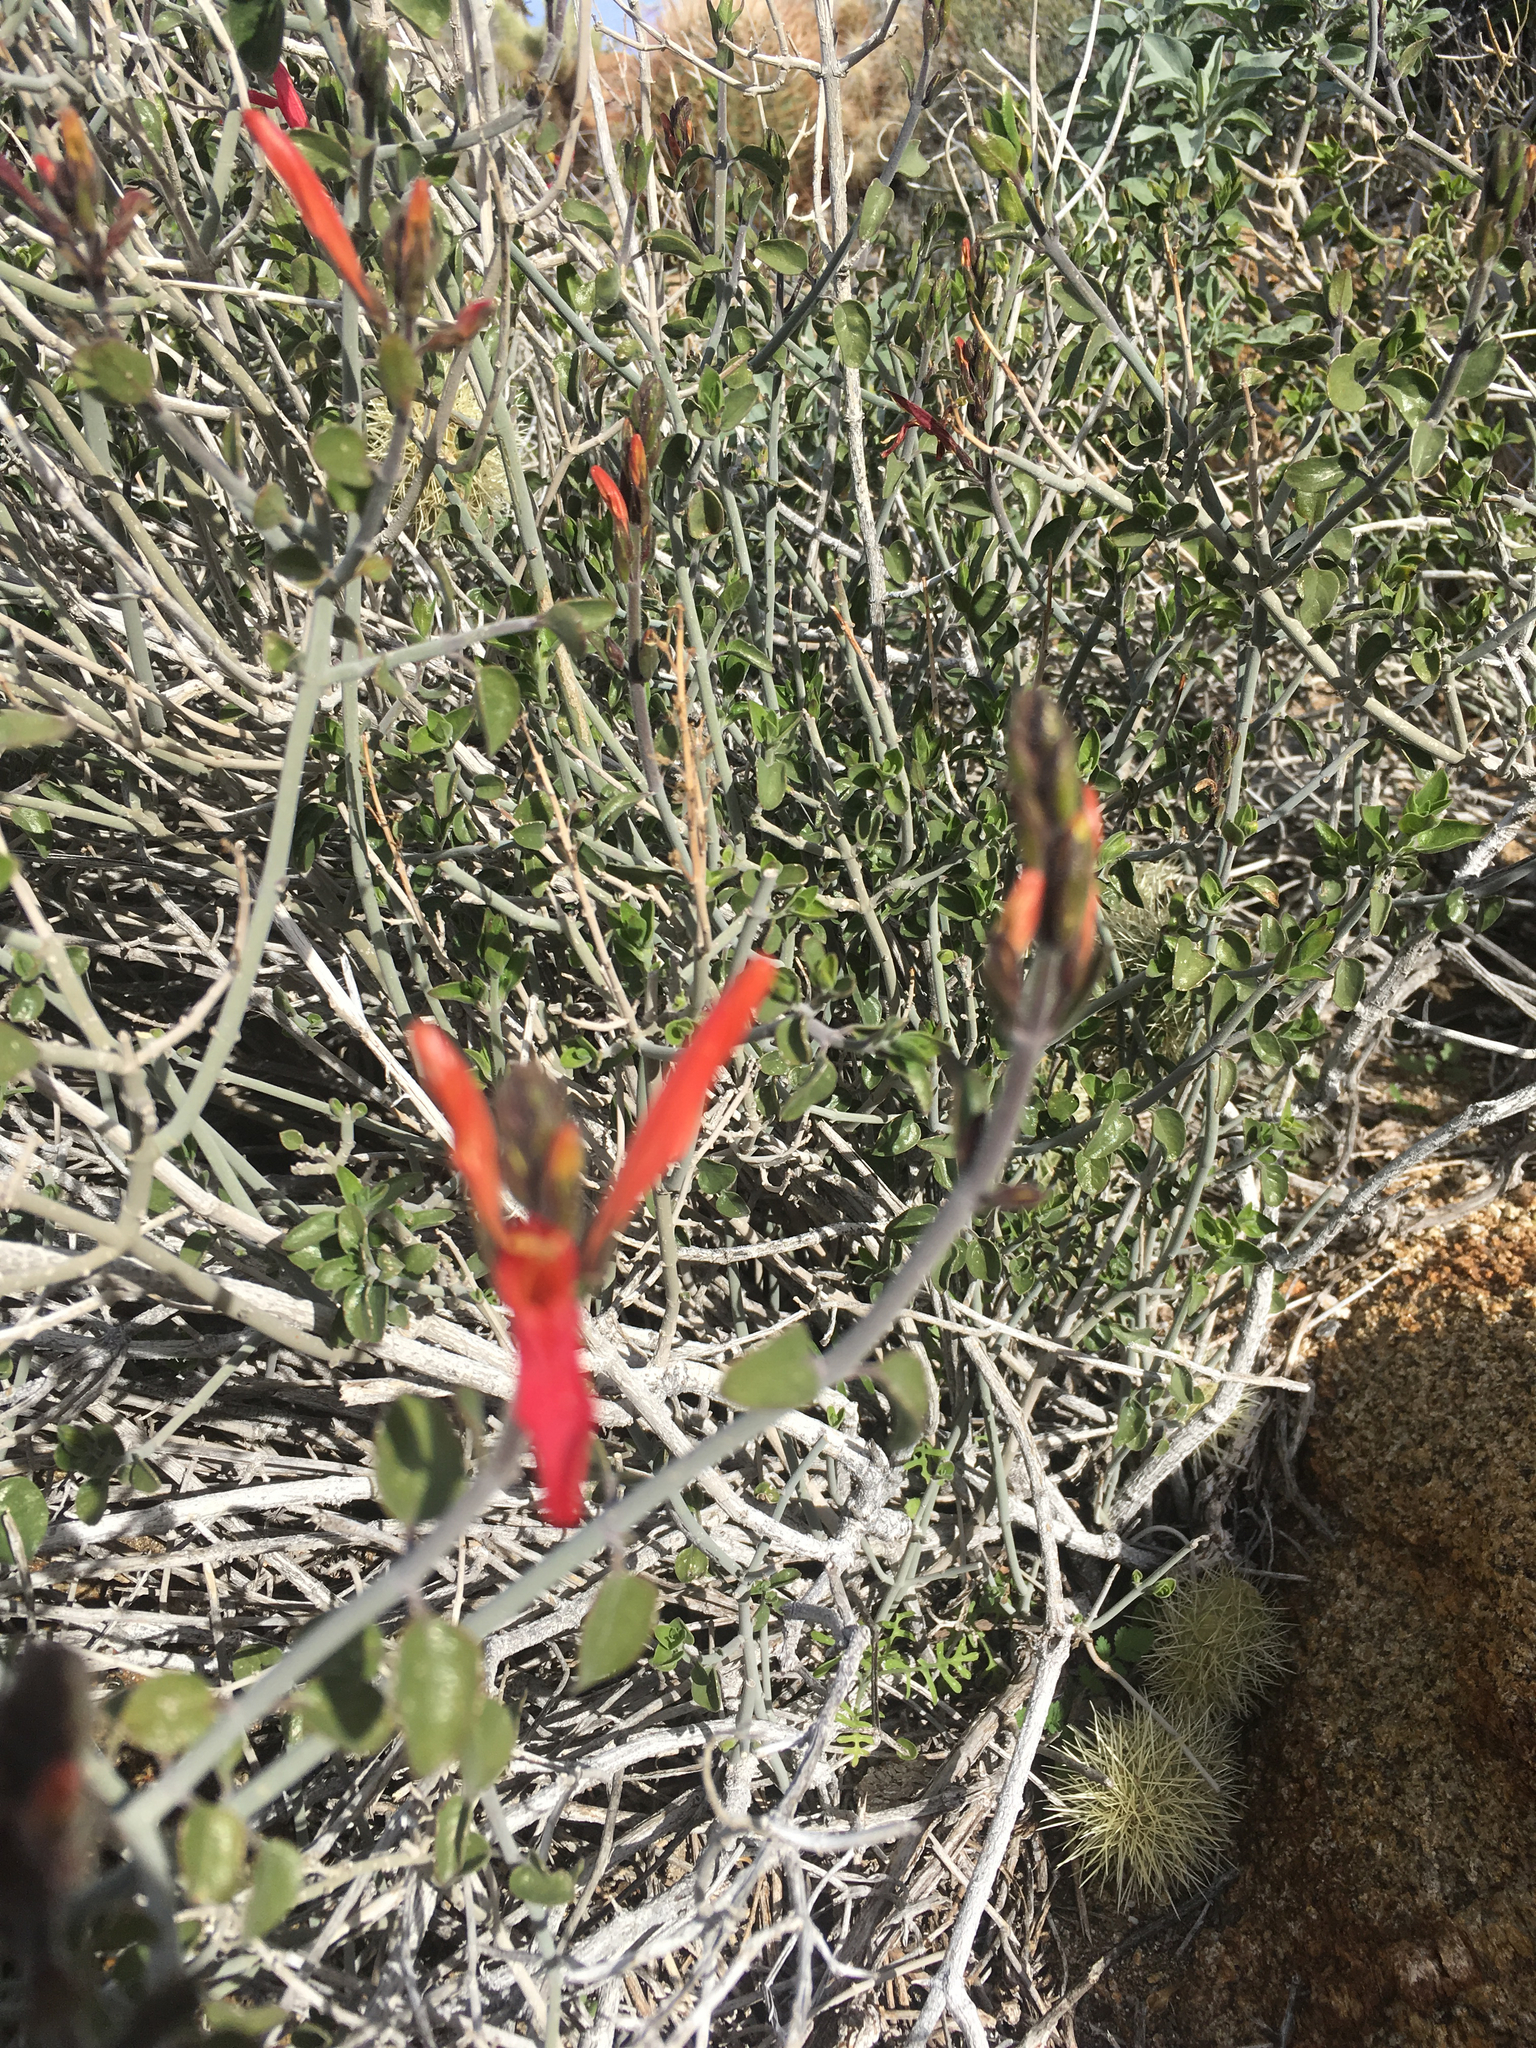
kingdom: Plantae
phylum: Tracheophyta
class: Magnoliopsida
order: Lamiales
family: Acanthaceae
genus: Justicia
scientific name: Justicia californica
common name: Chuparosa-honeysuckle
